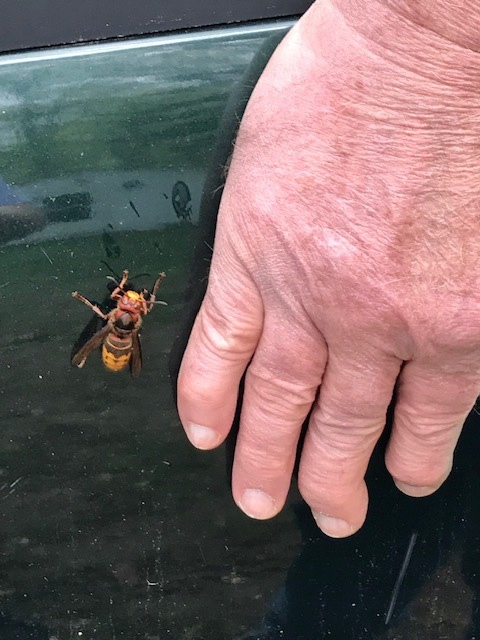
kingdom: Animalia
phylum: Arthropoda
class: Insecta
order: Hymenoptera
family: Vespidae
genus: Vespa
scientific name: Vespa crabro
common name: Hornet
